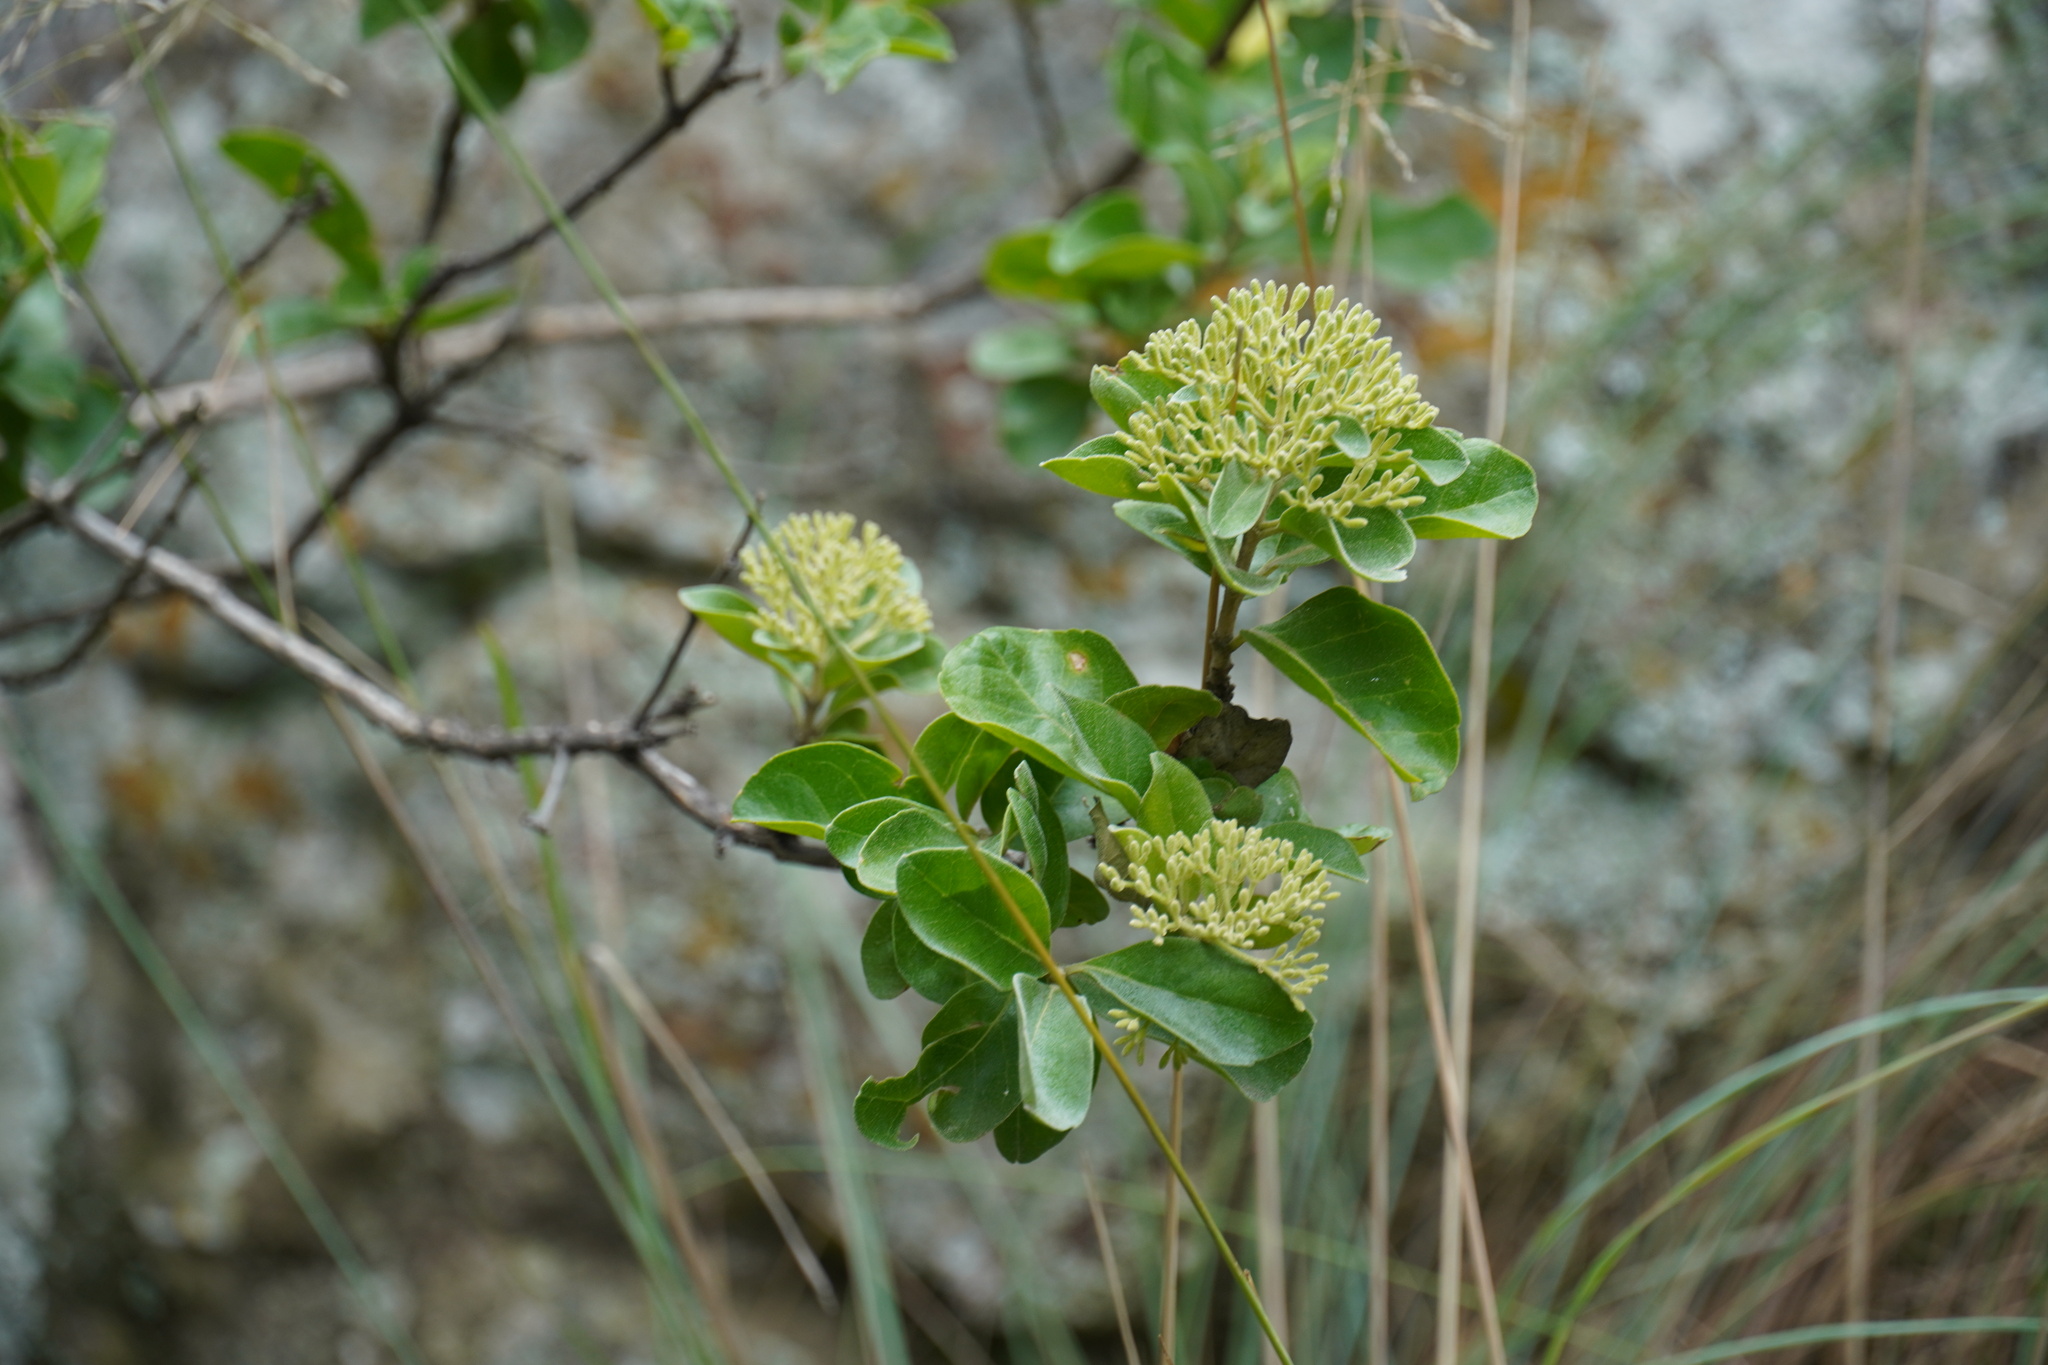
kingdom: Plantae
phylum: Tracheophyta
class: Magnoliopsida
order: Lamiales
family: Stilbaceae
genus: Nuxia
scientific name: Nuxia congesta
